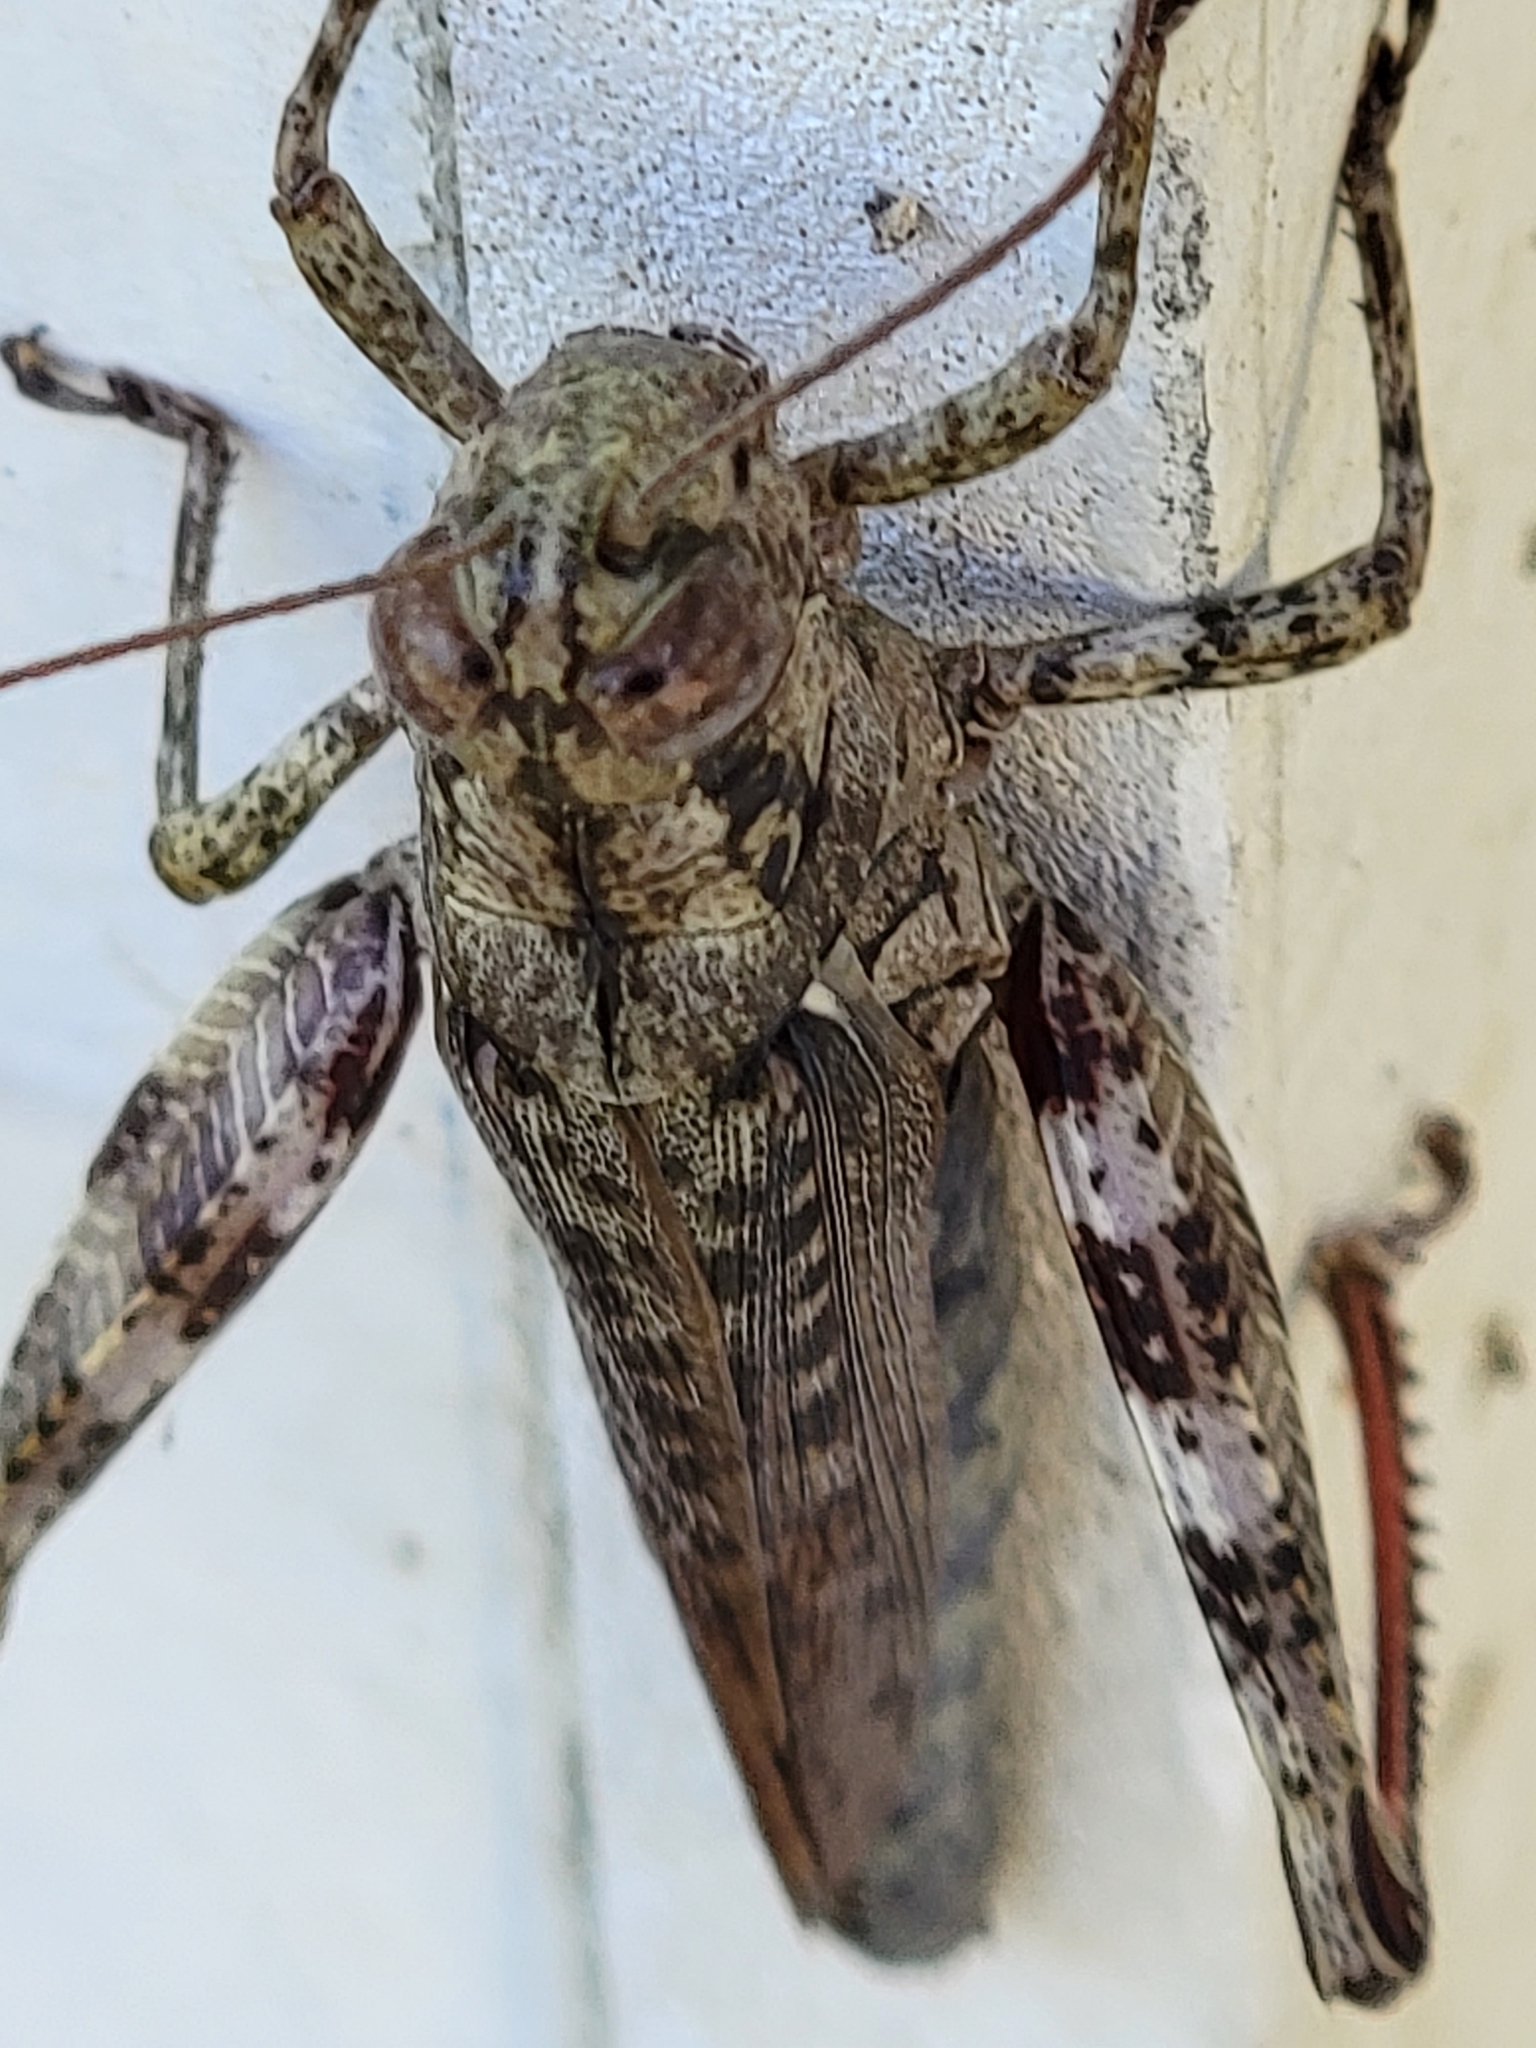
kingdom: Animalia
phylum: Arthropoda
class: Insecta
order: Orthoptera
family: Acrididae
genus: Melanoplus
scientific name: Melanoplus punctulatus
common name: Pine-tree spur-throat grasshopper
